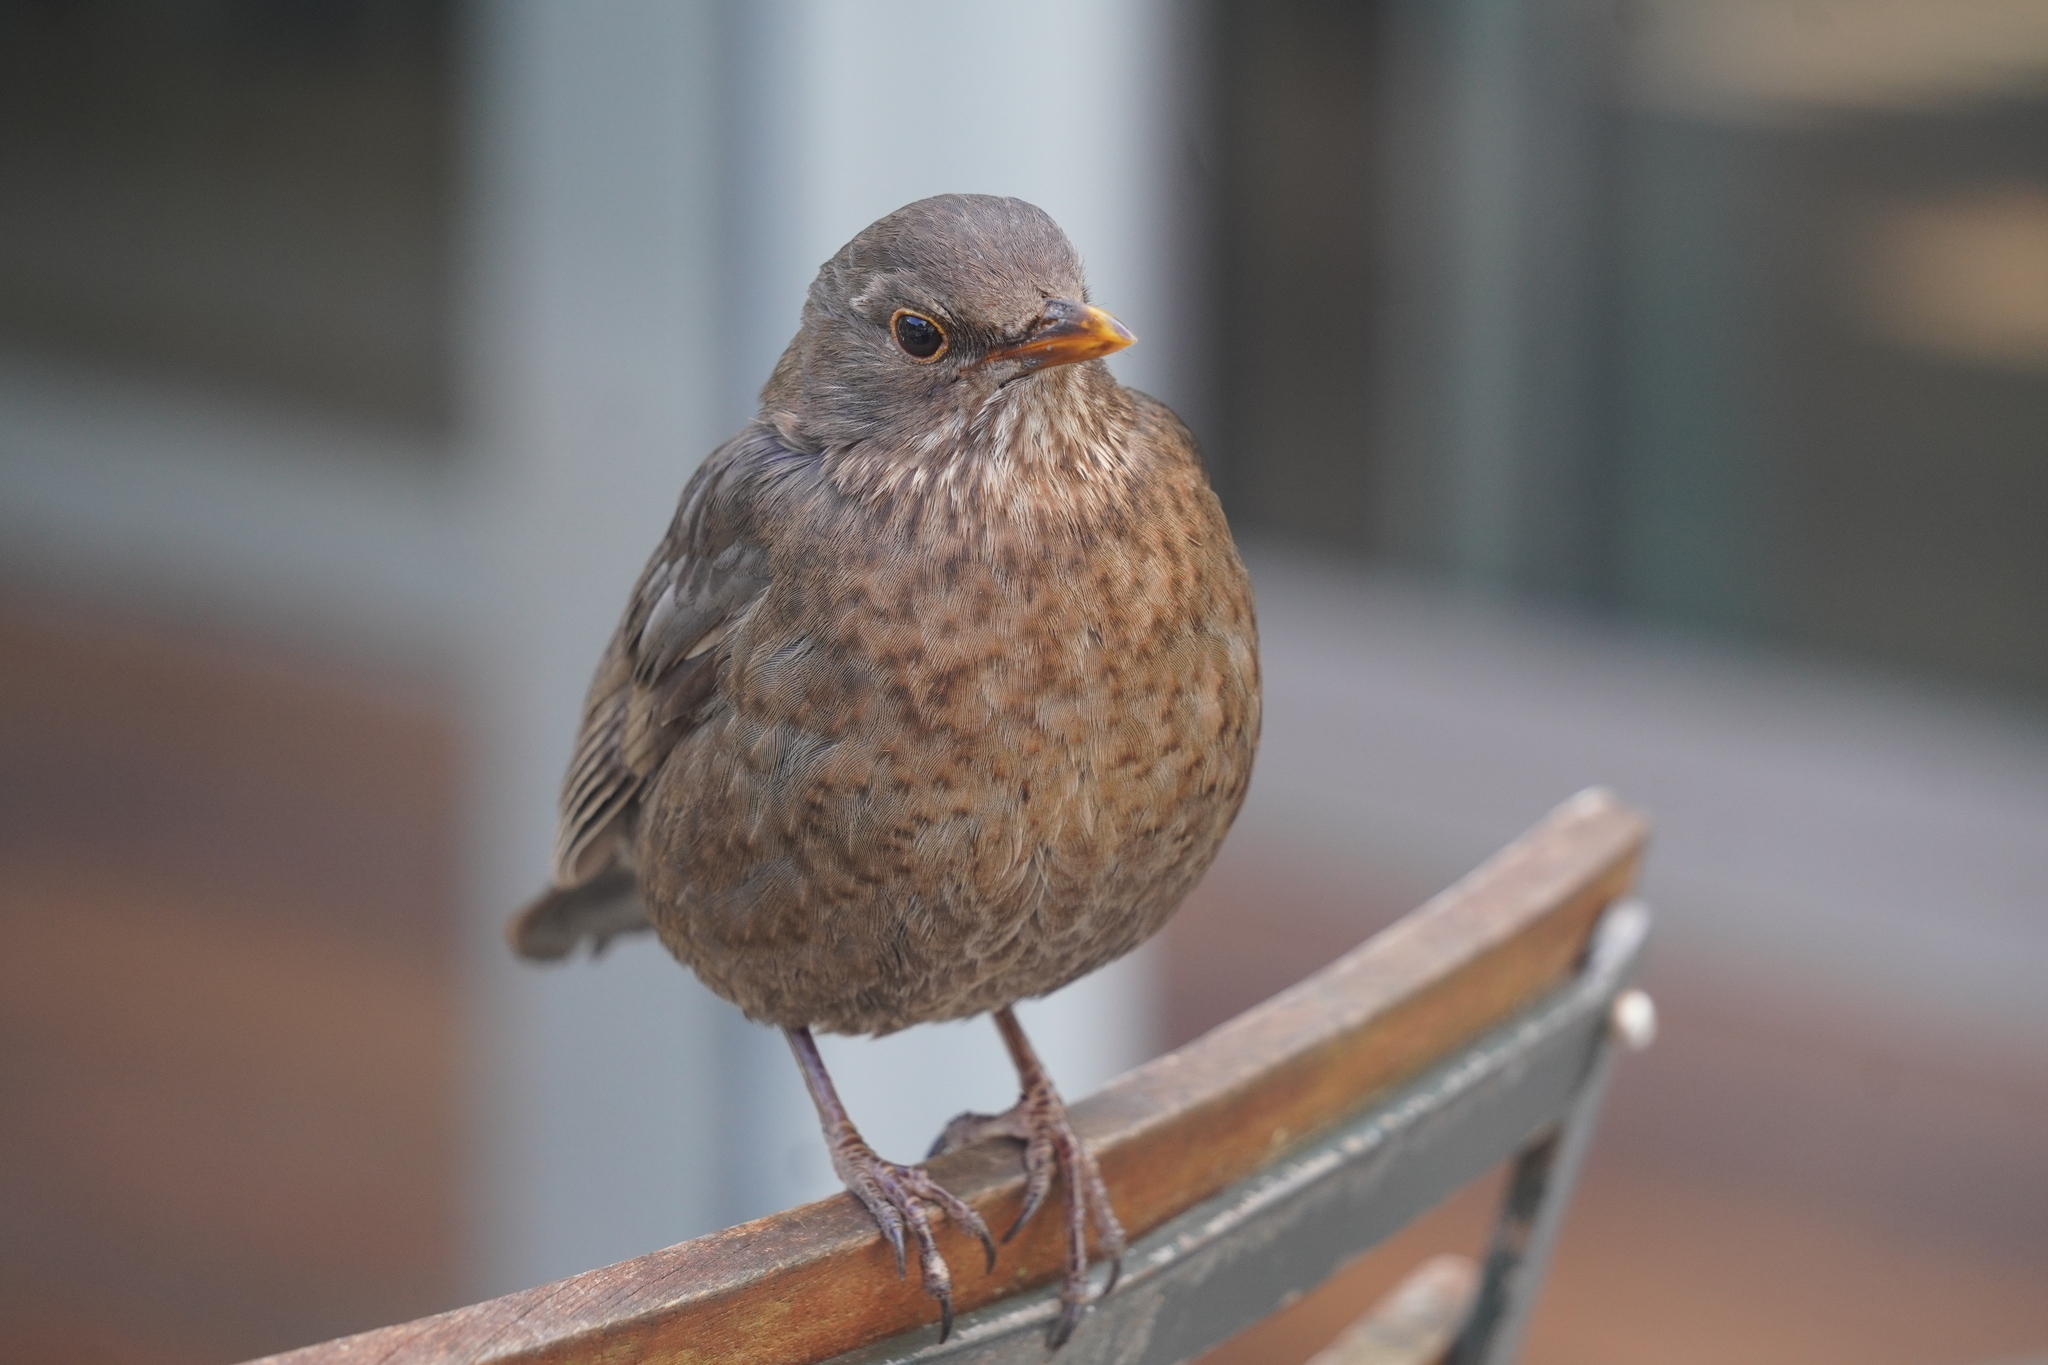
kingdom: Animalia
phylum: Chordata
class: Aves
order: Passeriformes
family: Turdidae
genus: Turdus
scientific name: Turdus merula
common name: Common blackbird
